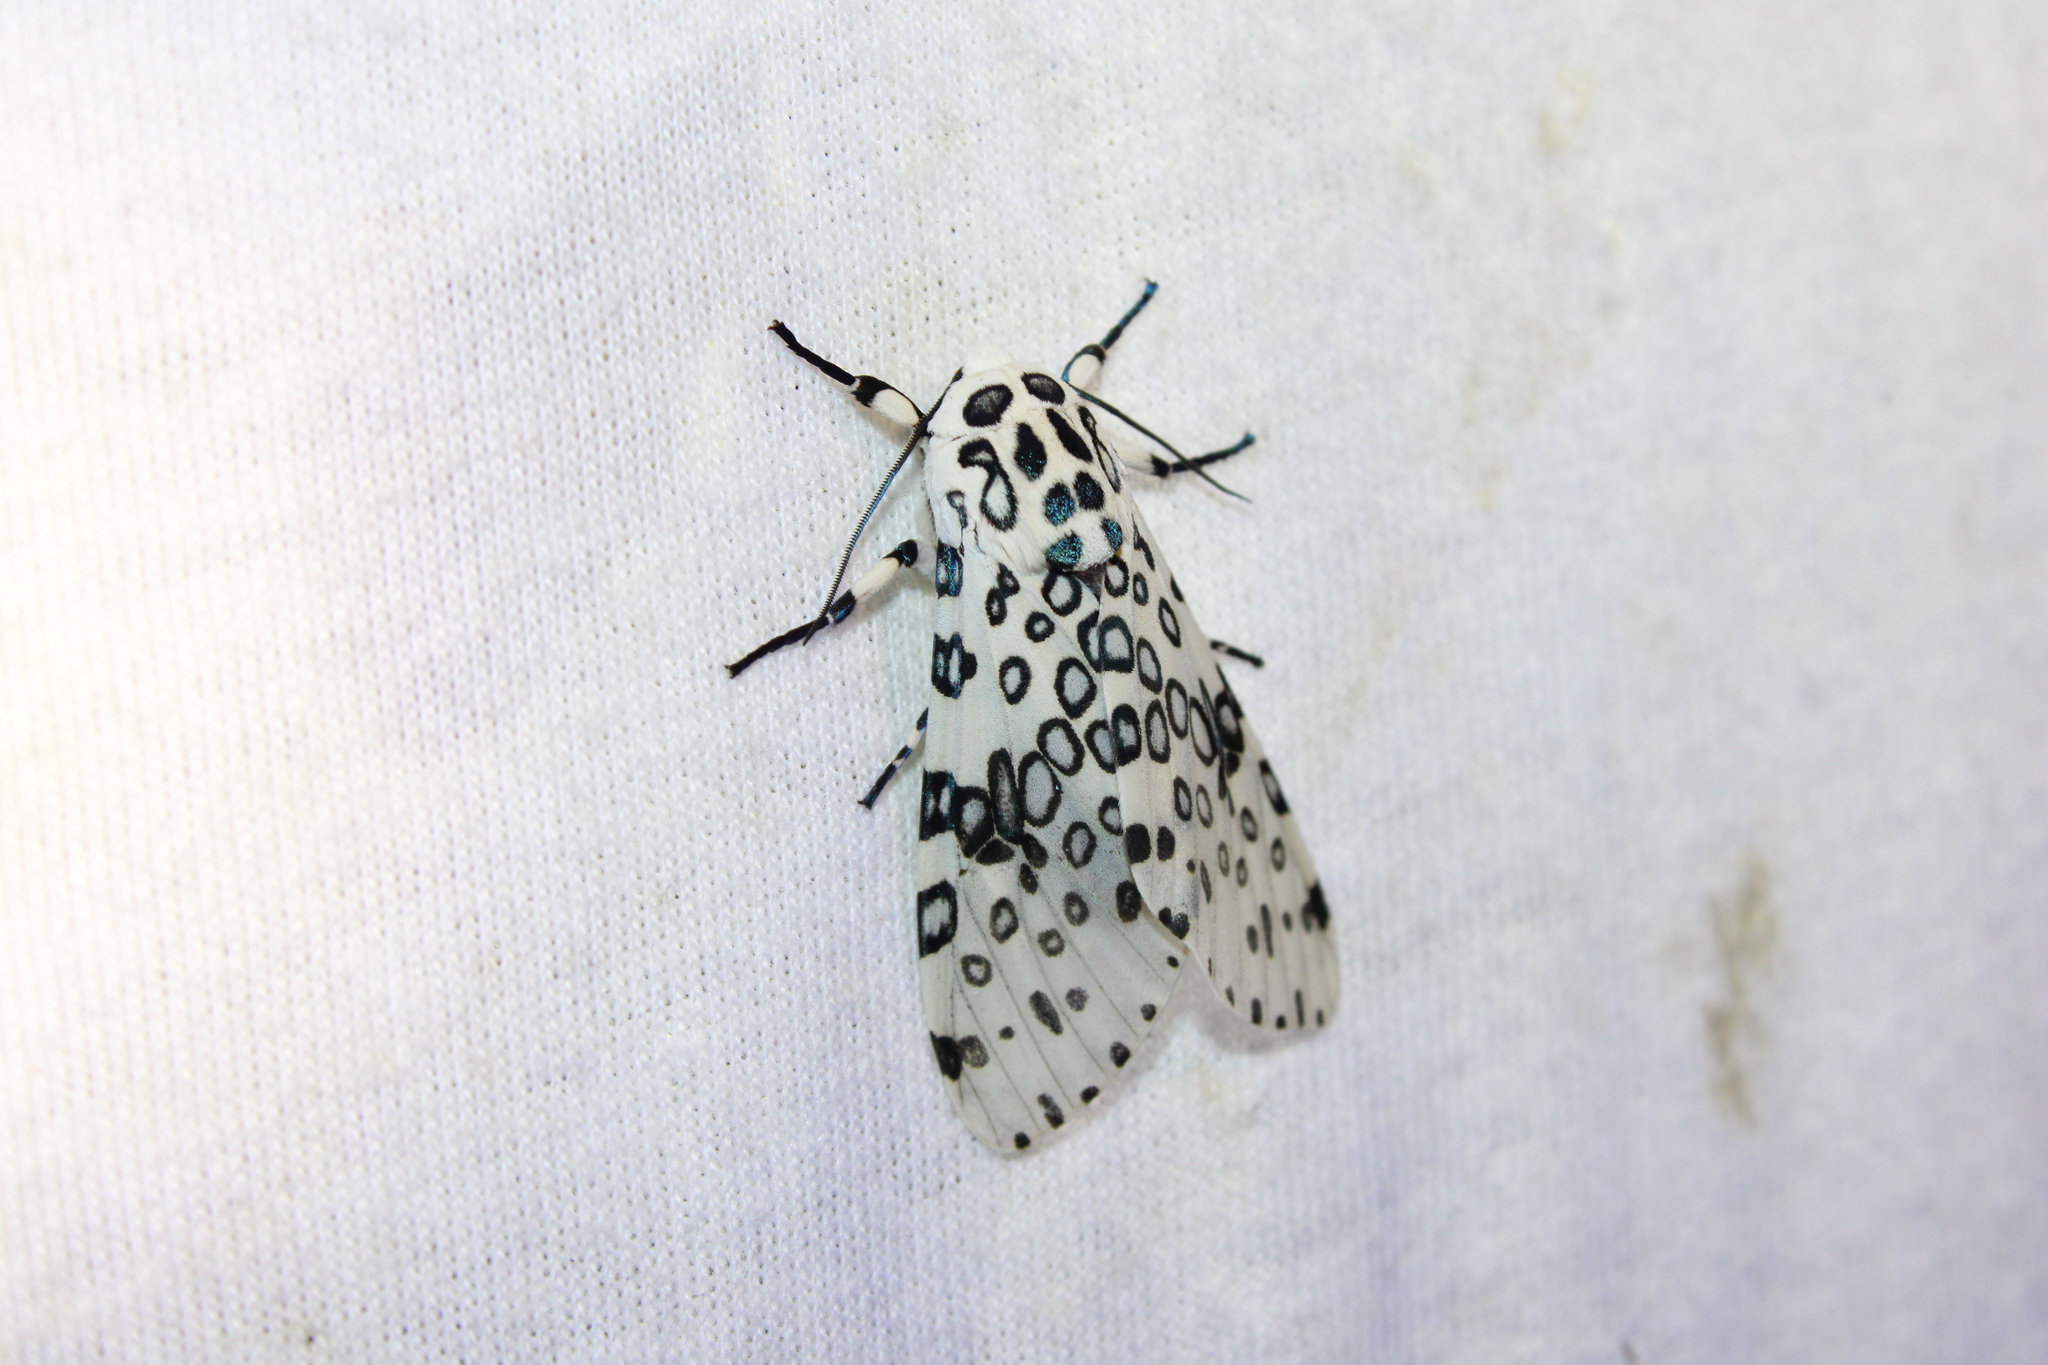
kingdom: Animalia
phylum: Arthropoda
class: Insecta
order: Lepidoptera
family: Erebidae
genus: Hypercompe
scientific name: Hypercompe scribonia
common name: Giant leopard moth
